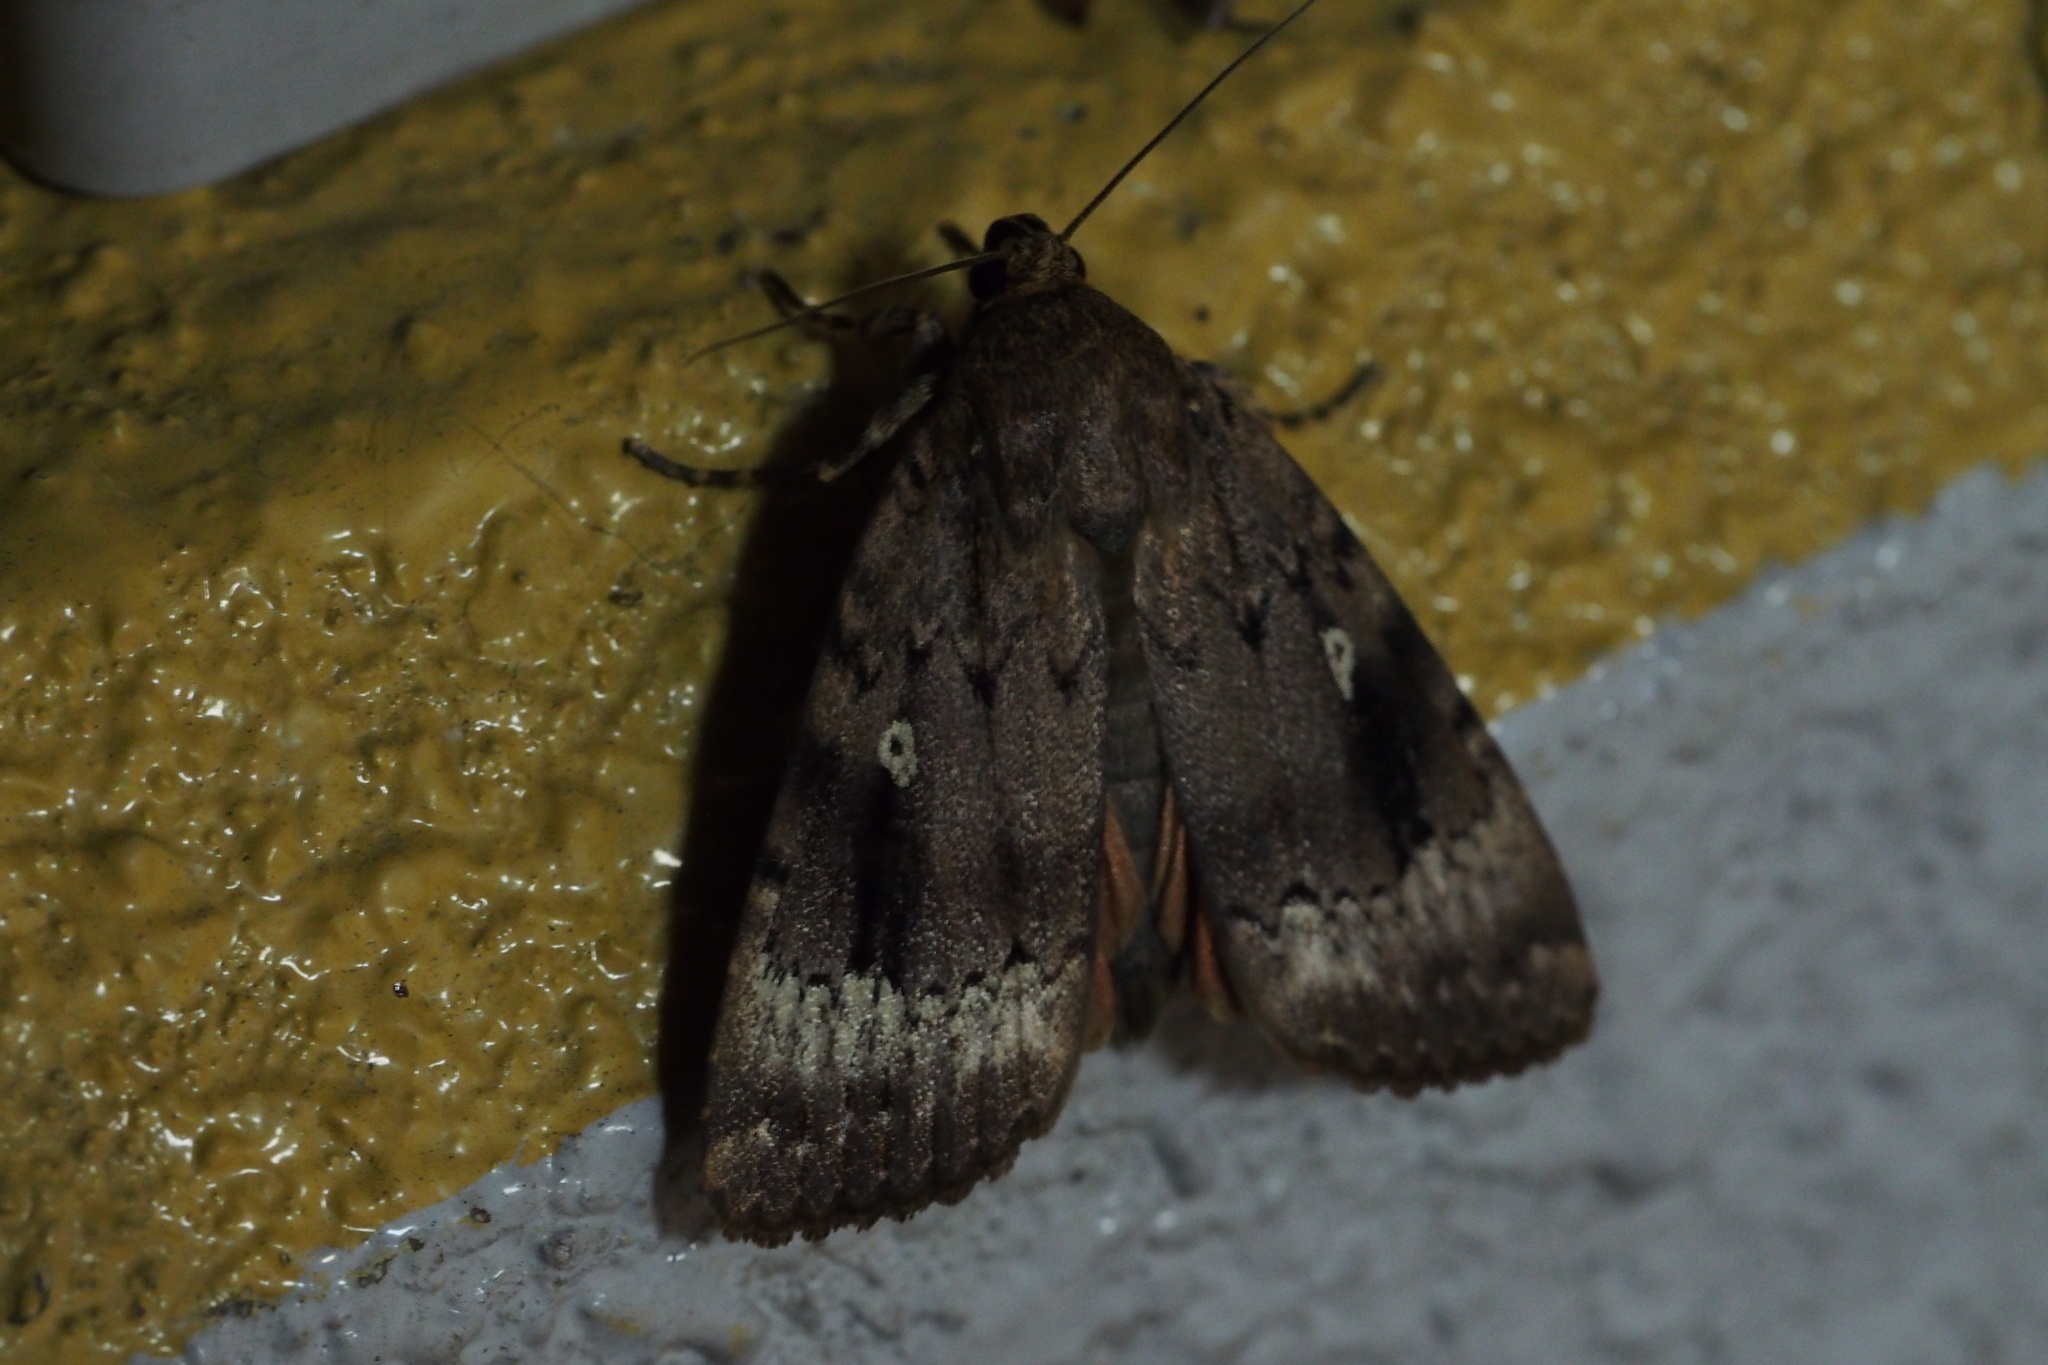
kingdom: Animalia
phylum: Arthropoda
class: Insecta
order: Lepidoptera
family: Noctuidae
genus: Amphipyra
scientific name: Amphipyra monolitha
